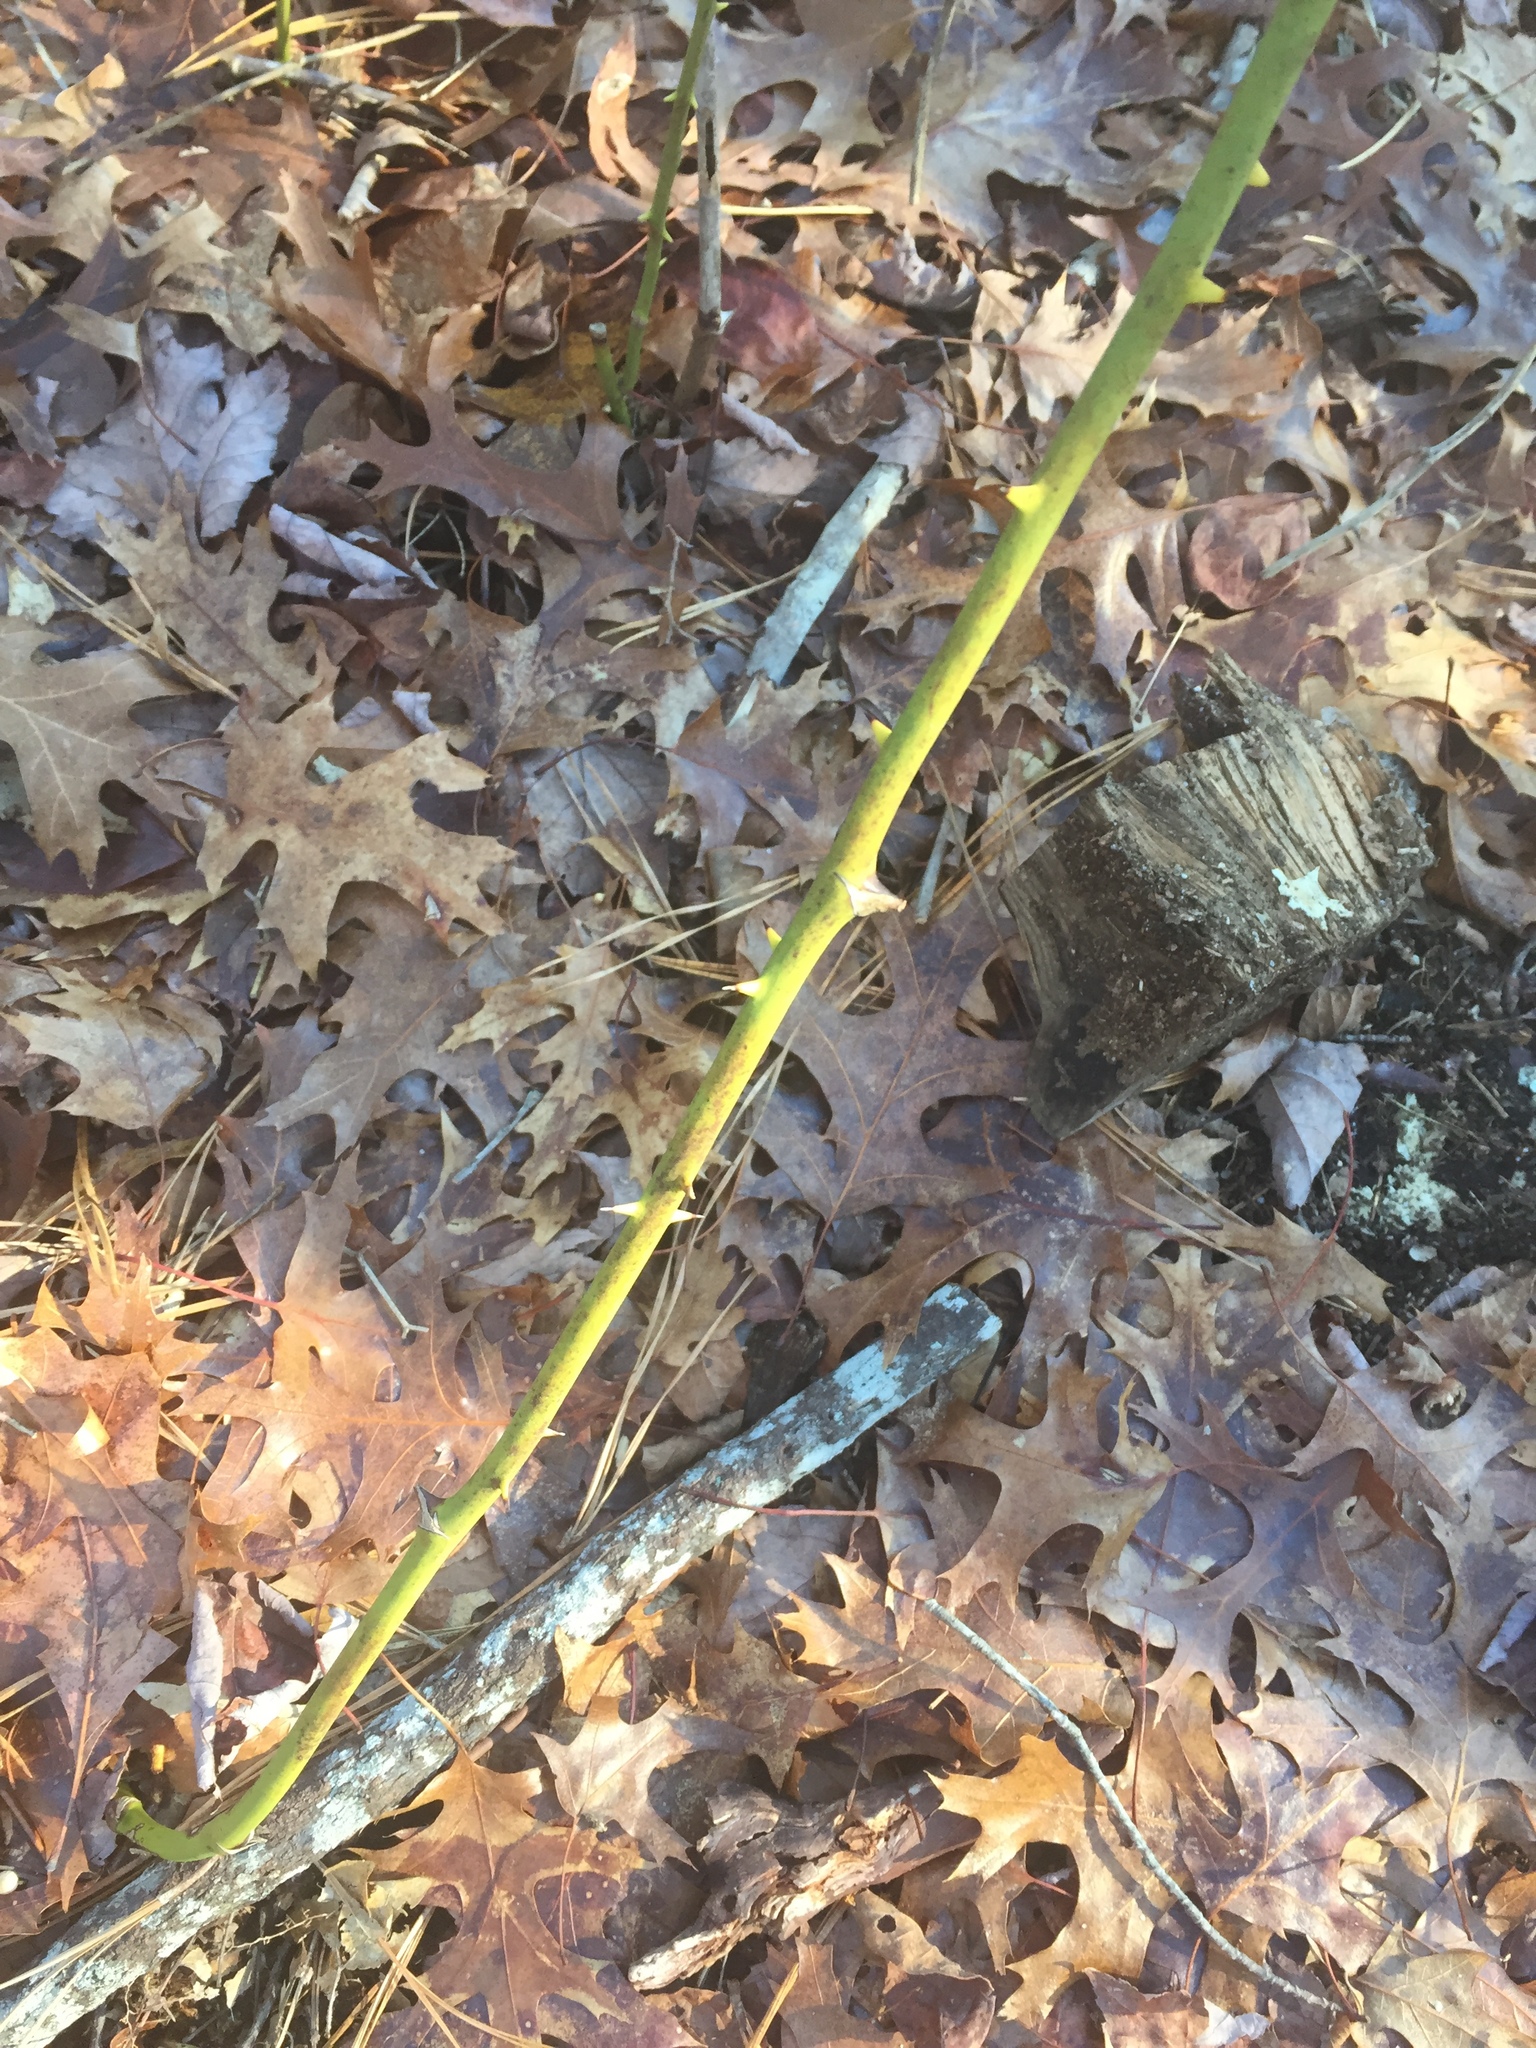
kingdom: Plantae
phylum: Tracheophyta
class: Liliopsida
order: Liliales
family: Smilacaceae
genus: Smilax
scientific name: Smilax rotundifolia
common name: Bullbriar
